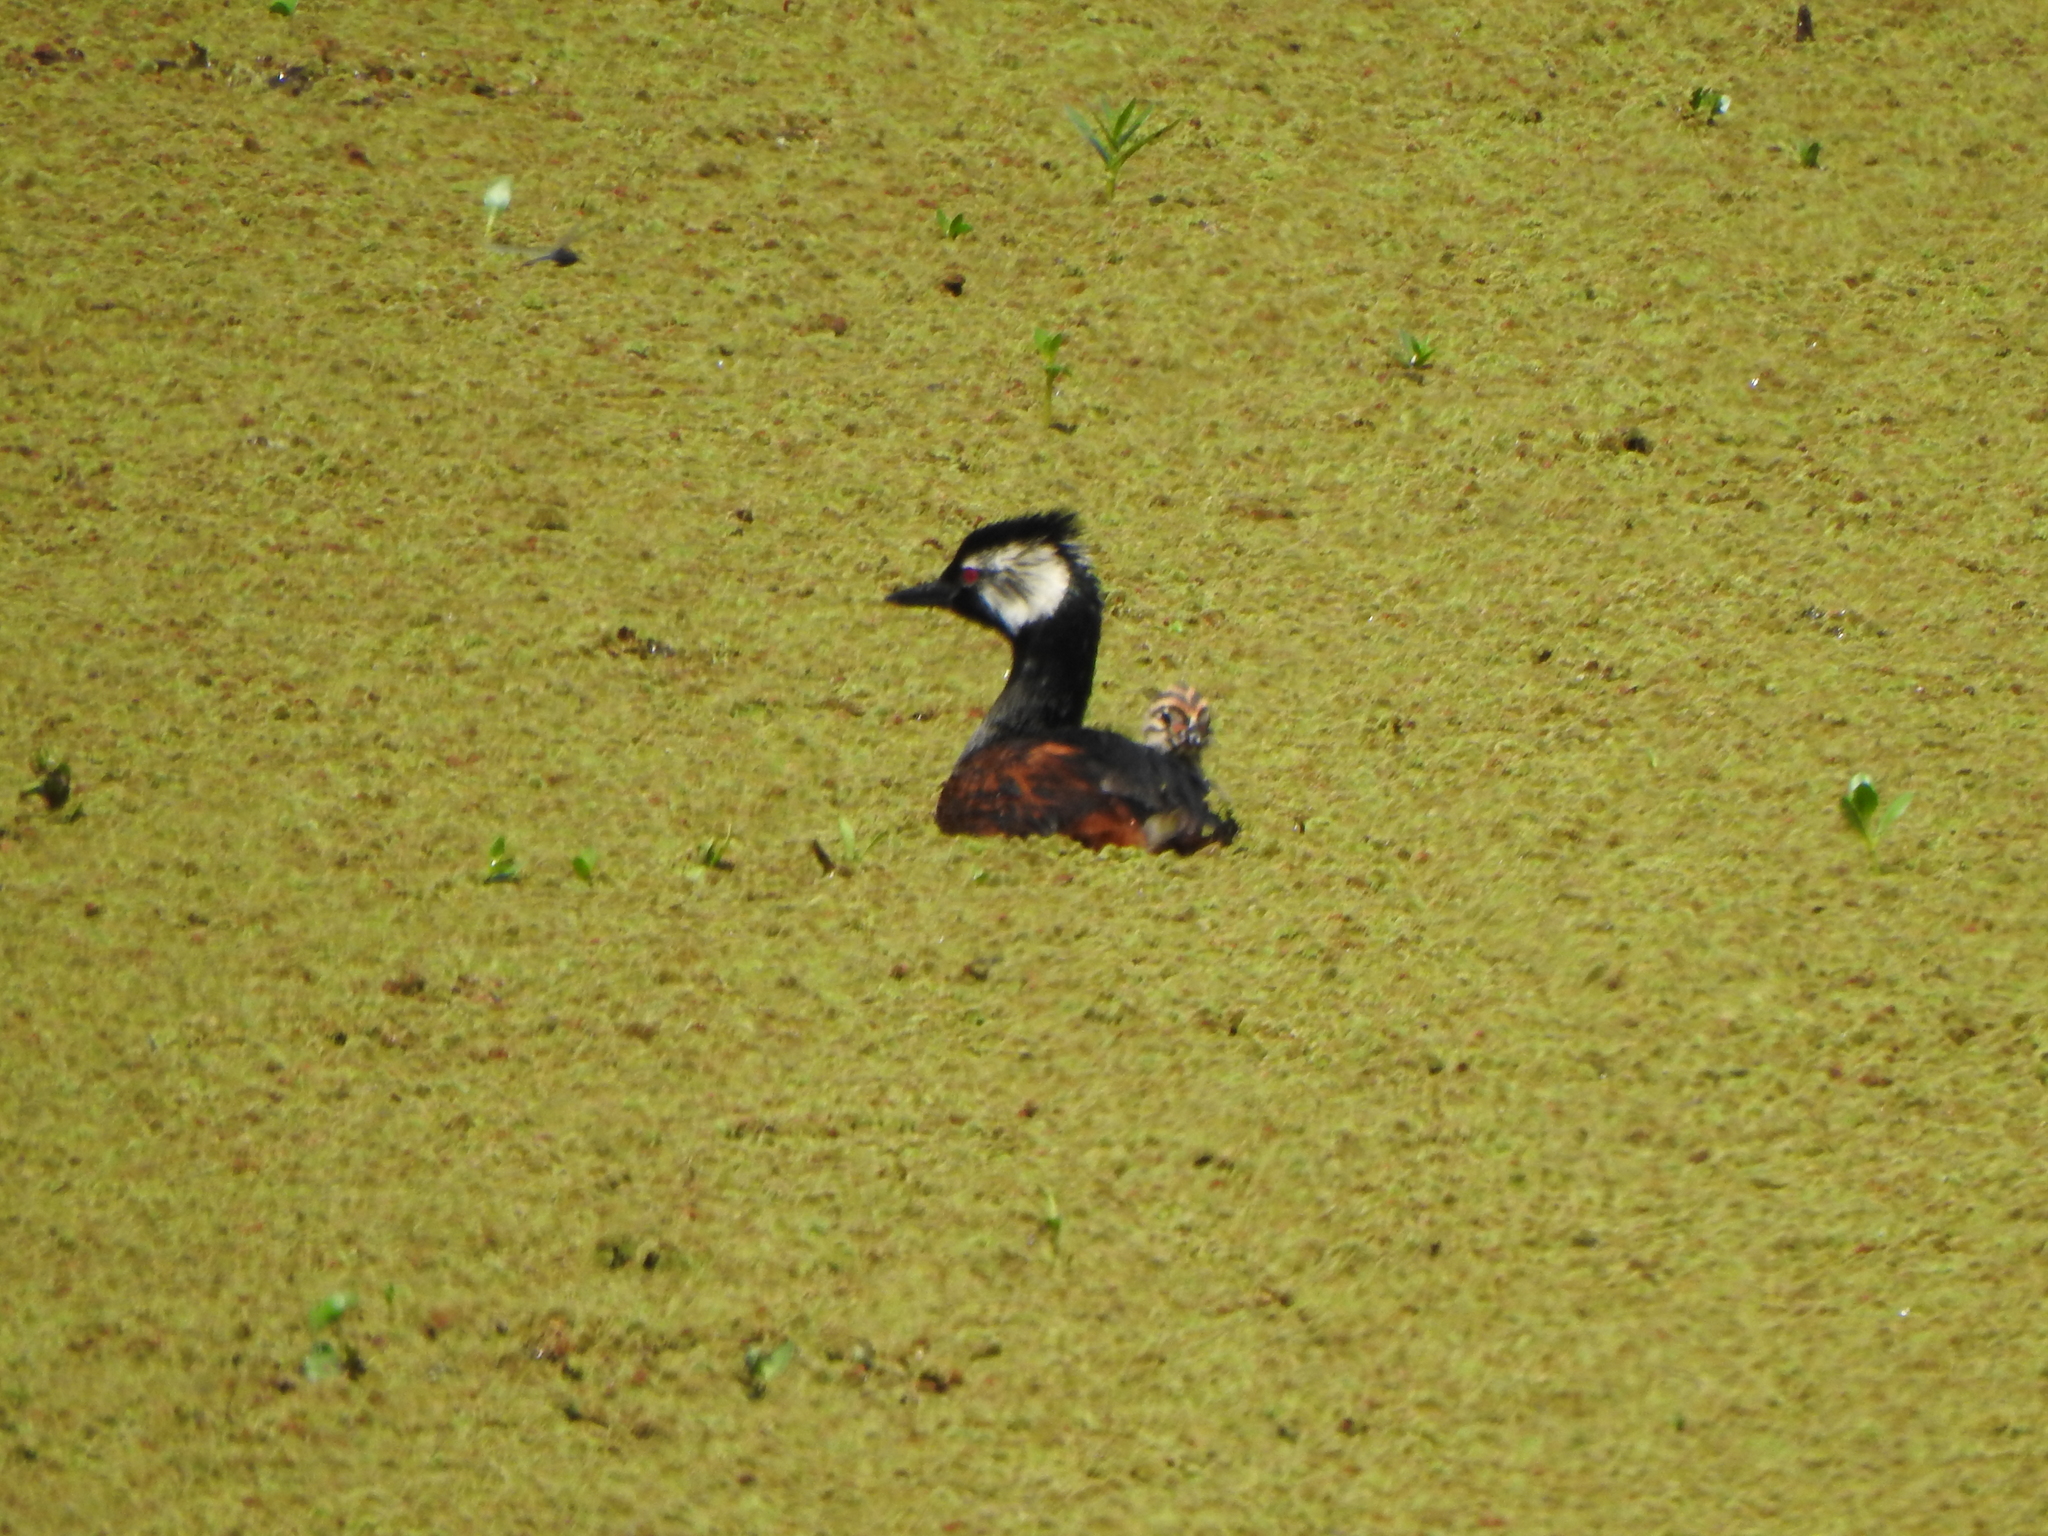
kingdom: Animalia
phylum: Chordata
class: Aves
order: Podicipediformes
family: Podicipedidae
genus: Rollandia
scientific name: Rollandia rolland
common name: White-tufted grebe
